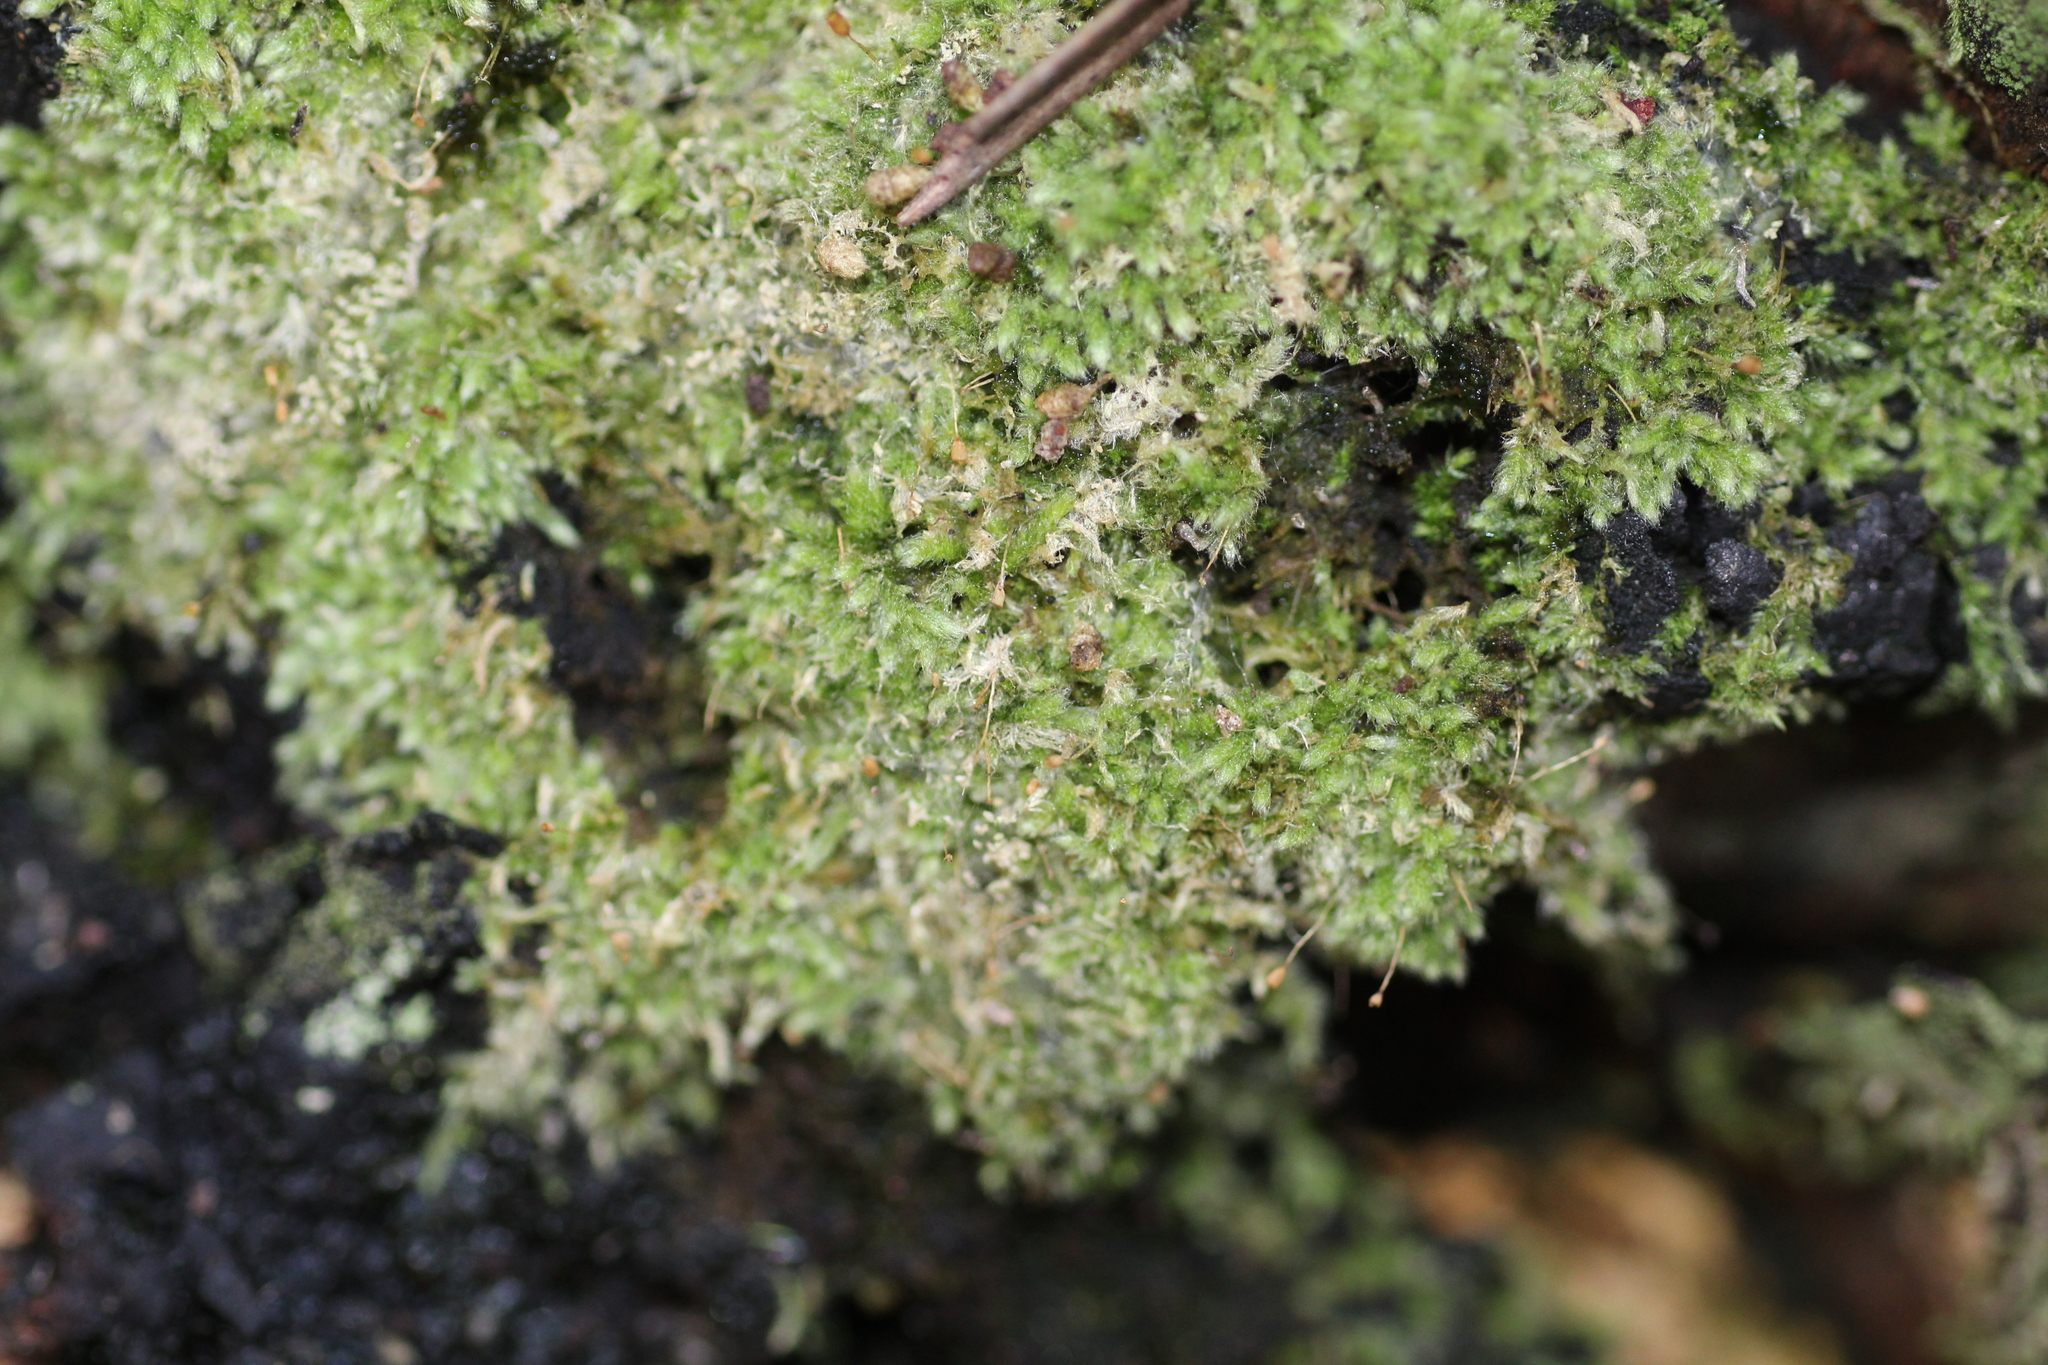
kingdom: Plantae
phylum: Bryophyta
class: Bryopsida
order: Hypnales
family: Fabroniaceae
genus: Fabronia
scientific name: Fabronia hampeana
